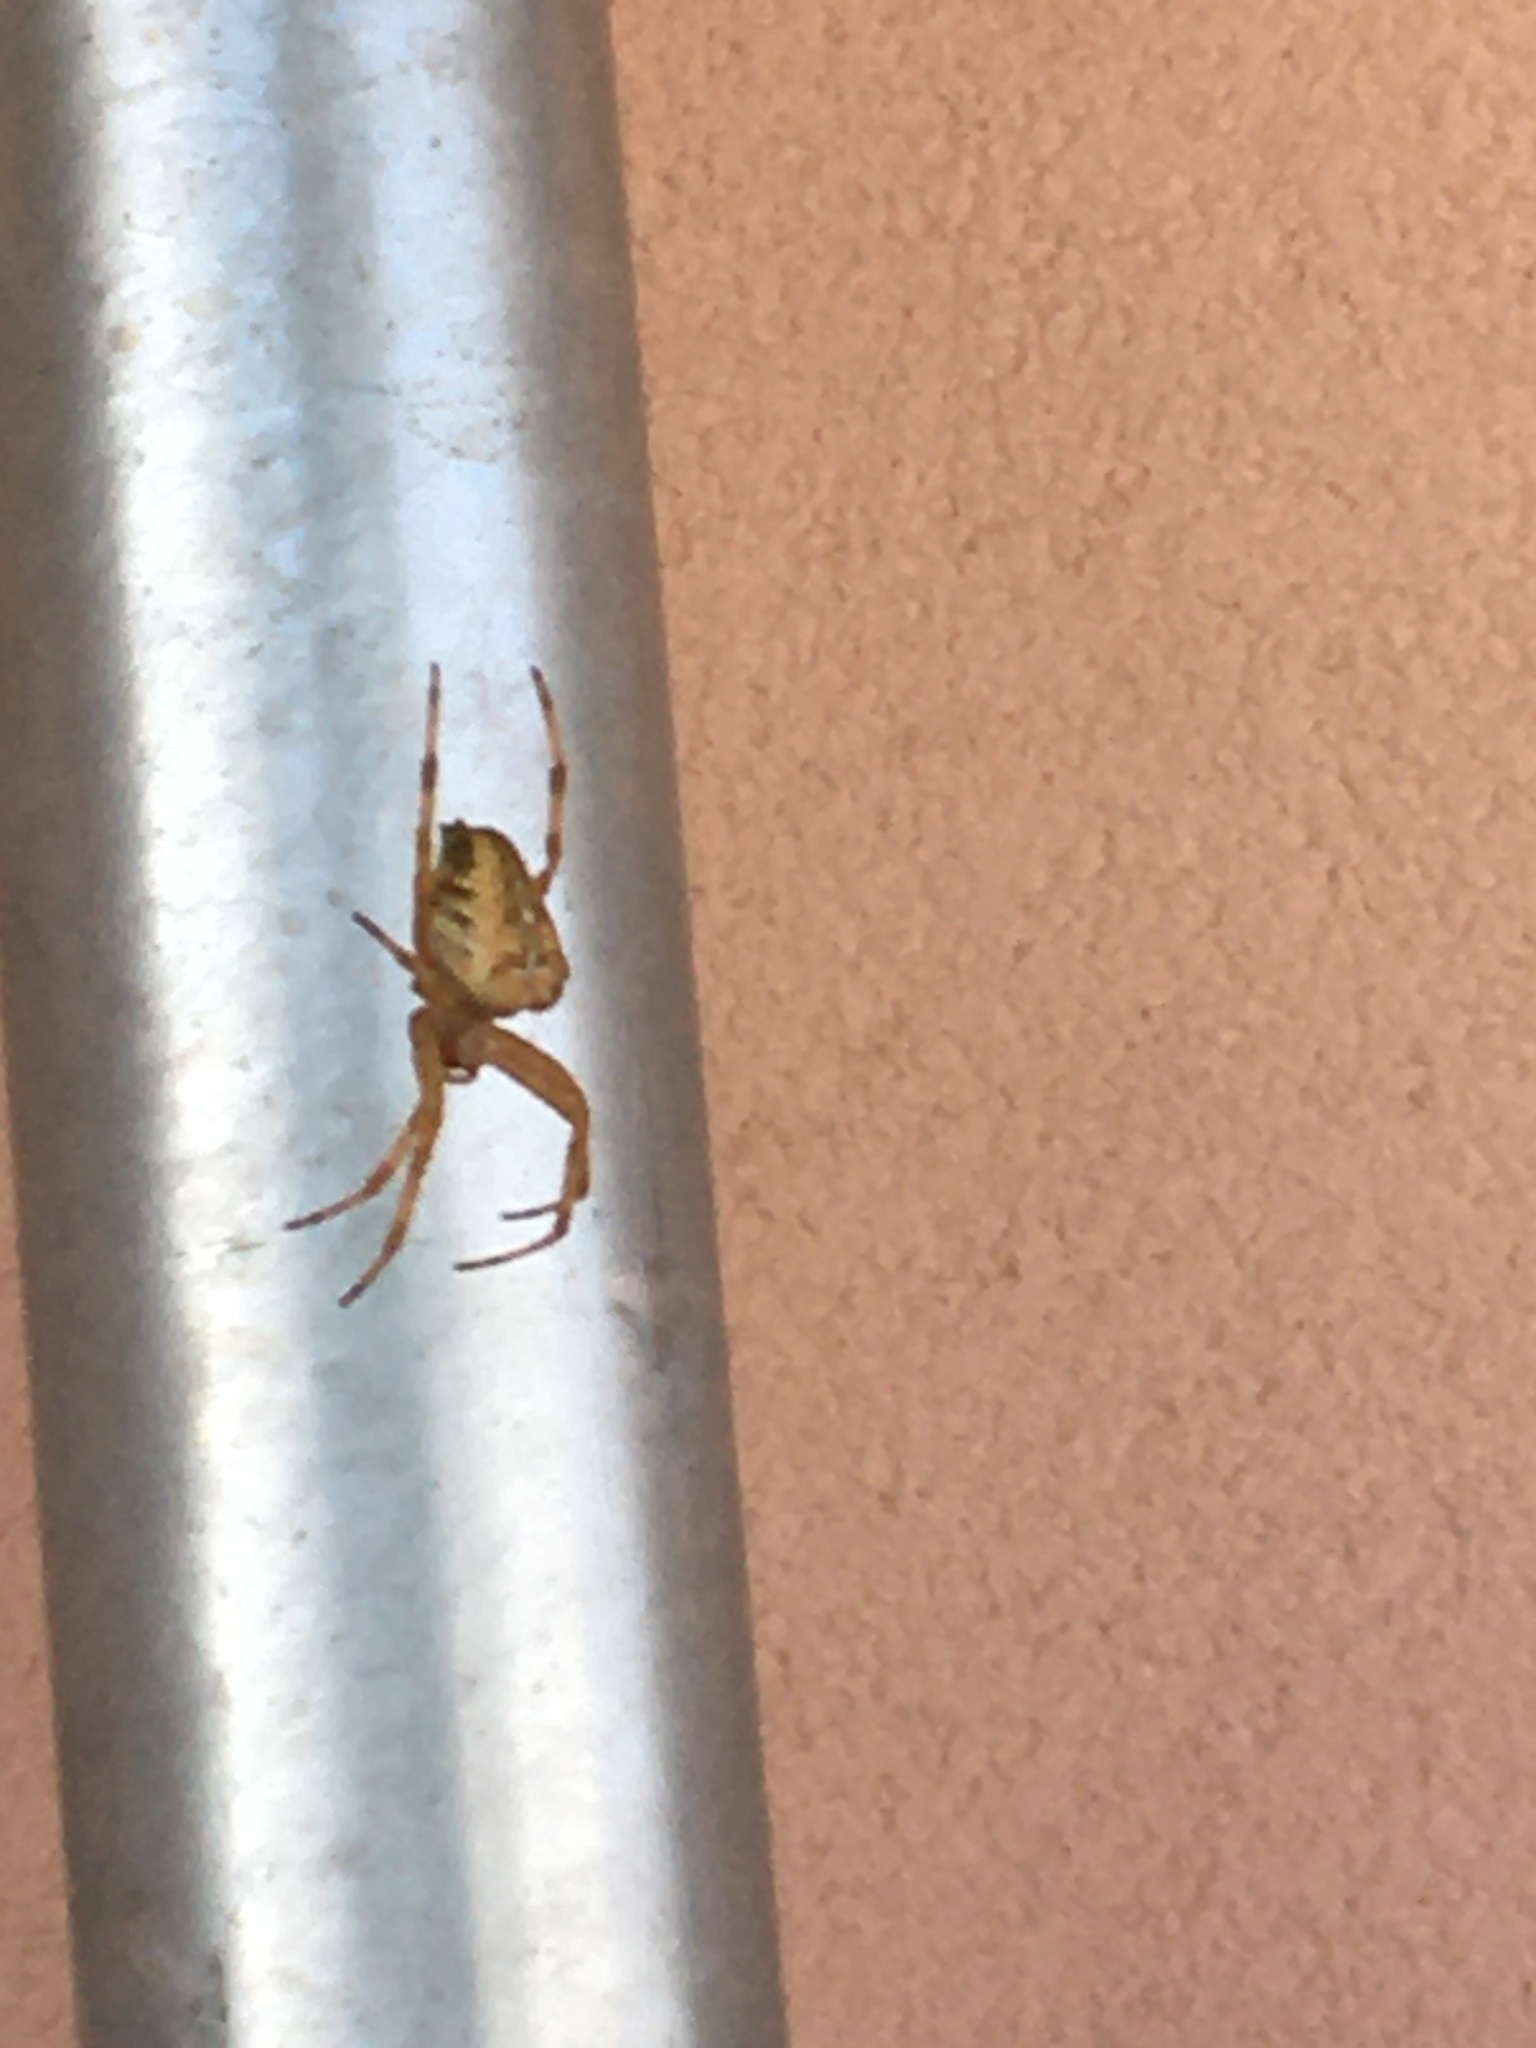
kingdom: Animalia
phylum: Arthropoda
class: Arachnida
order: Araneae
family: Araneidae
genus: Araneus
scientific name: Araneus diadematus
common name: Cross orbweaver
